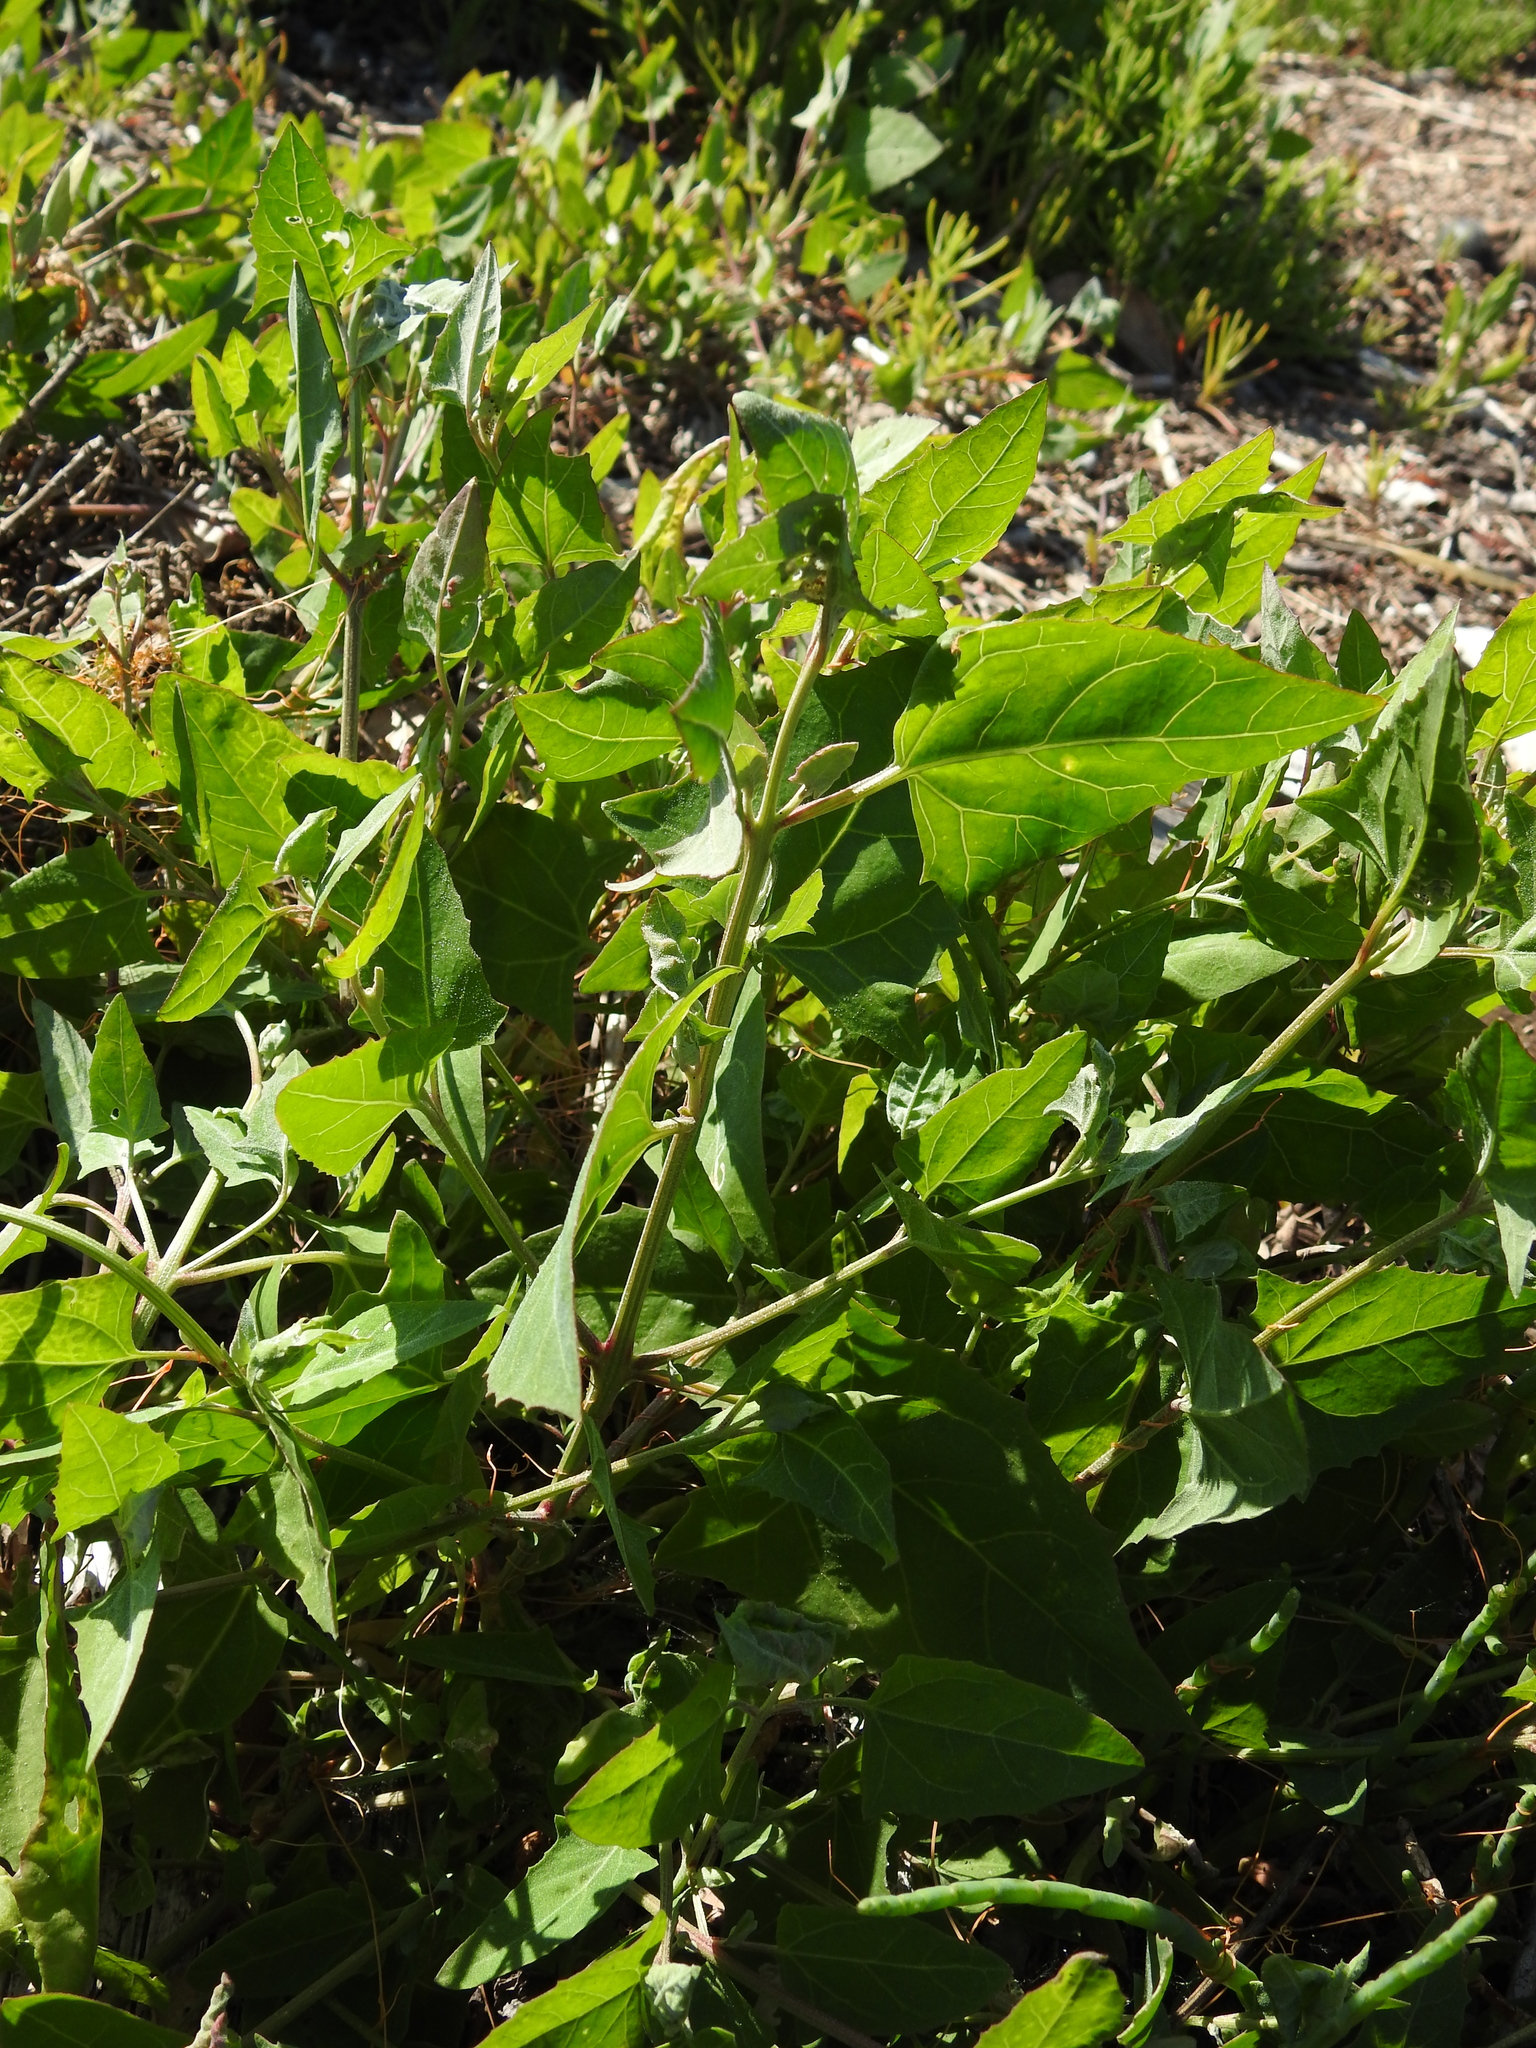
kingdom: Plantae
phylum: Tracheophyta
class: Magnoliopsida
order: Caryophyllales
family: Amaranthaceae
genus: Atriplex
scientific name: Atriplex prostrata
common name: Spear-leaved orache
